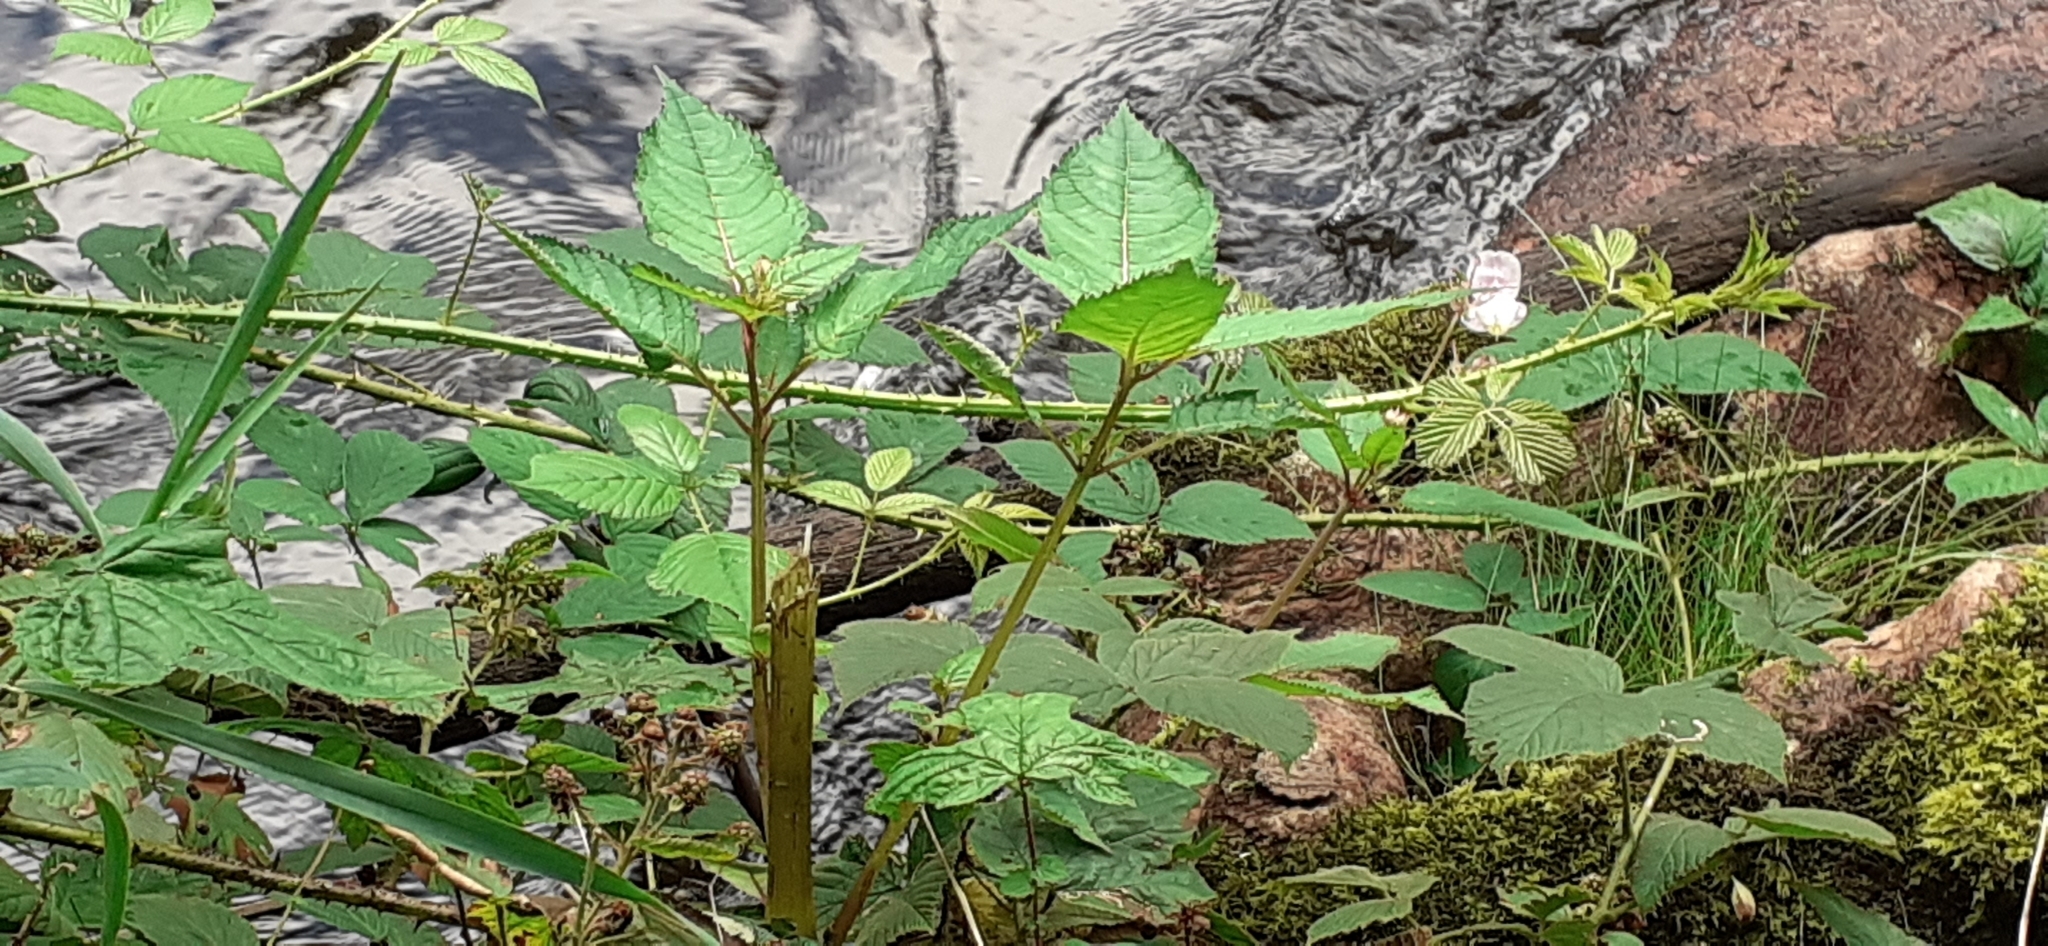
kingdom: Plantae
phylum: Tracheophyta
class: Magnoliopsida
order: Ericales
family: Balsaminaceae
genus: Impatiens
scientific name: Impatiens glandulifera
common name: Himalayan balsam
